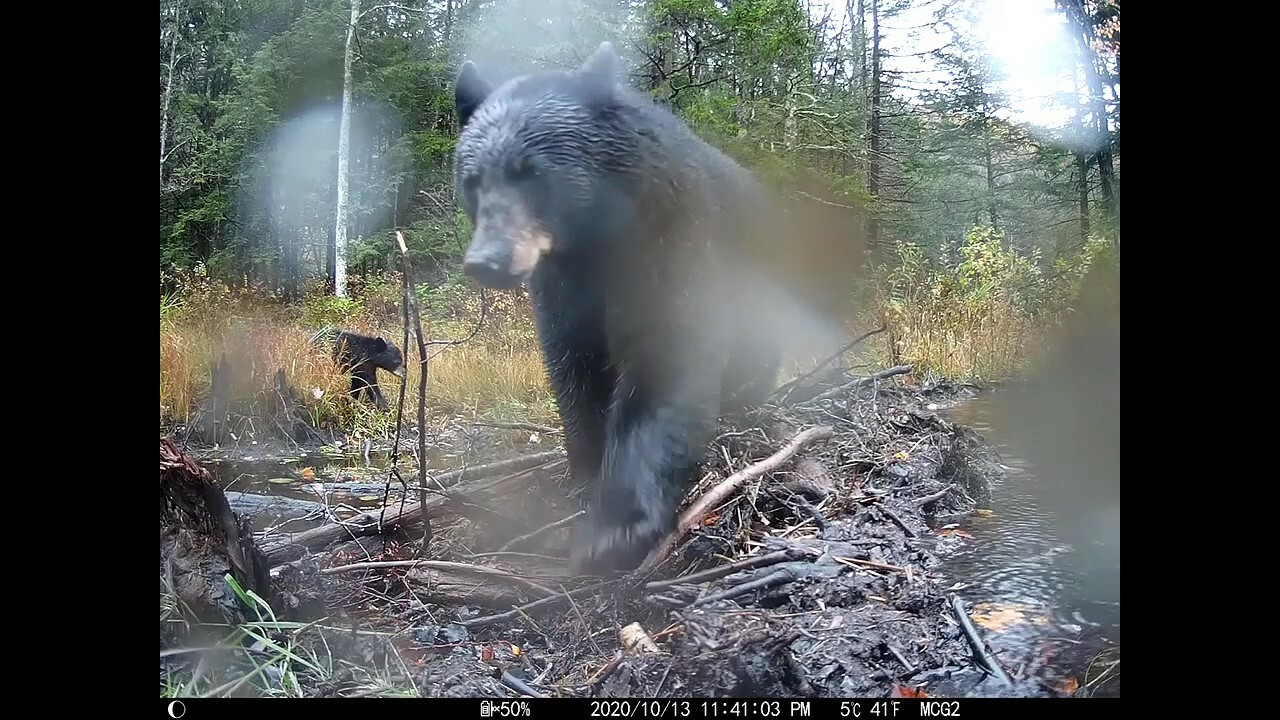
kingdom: Animalia
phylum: Chordata
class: Mammalia
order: Carnivora
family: Ursidae
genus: Ursus
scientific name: Ursus americanus
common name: American black bear
